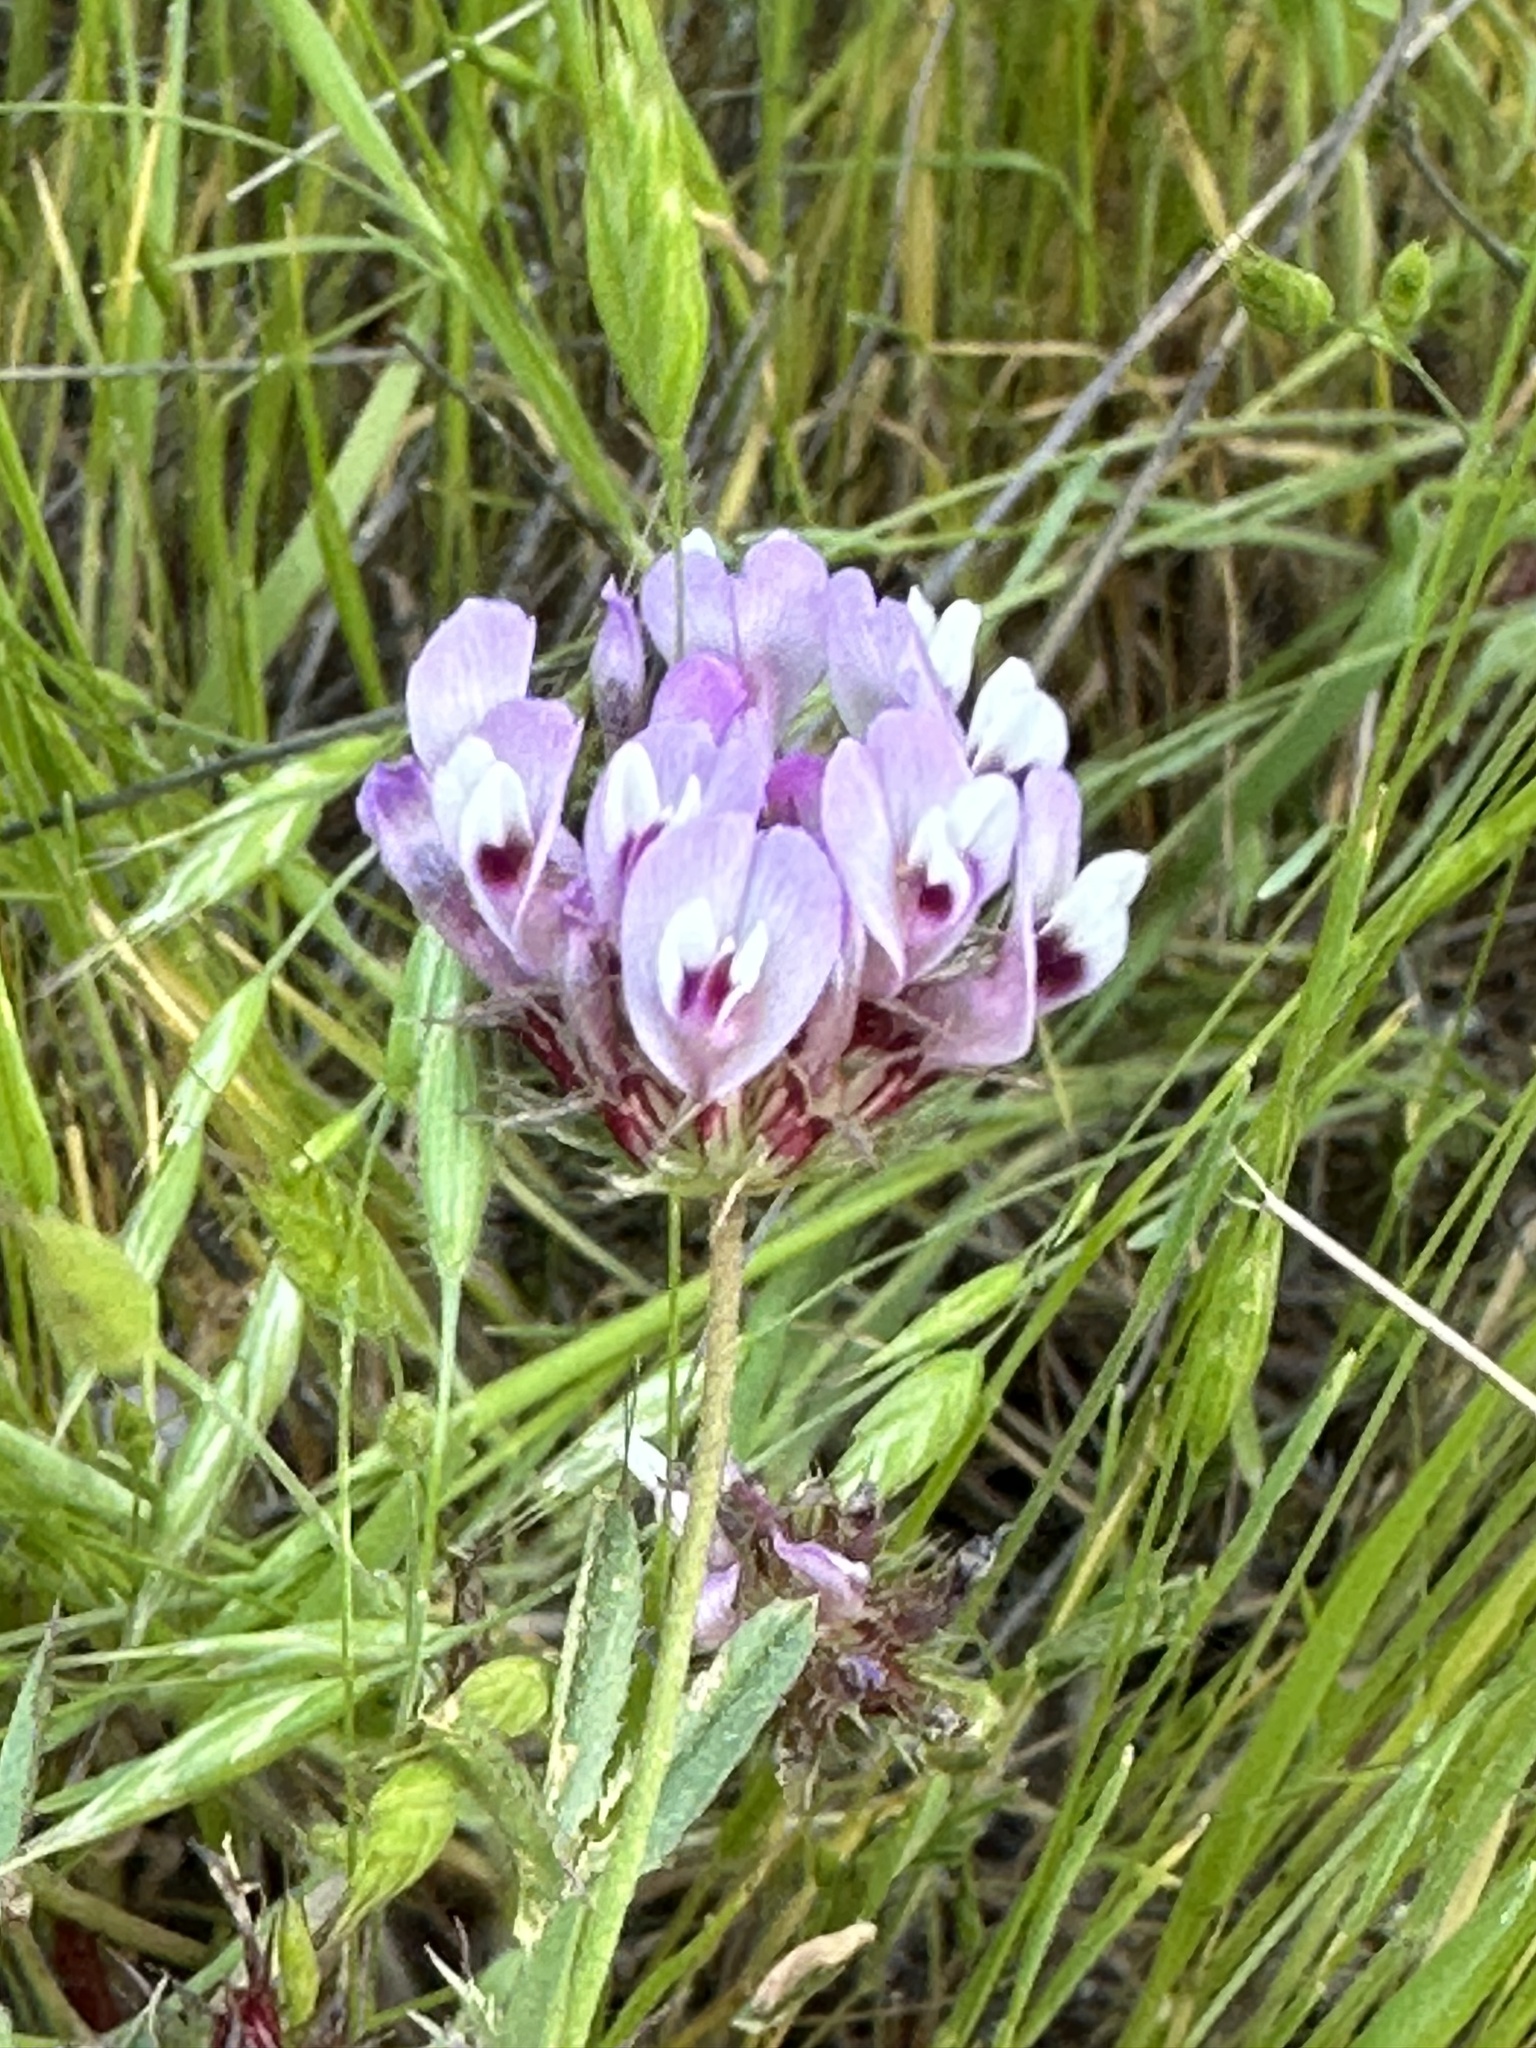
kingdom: Plantae
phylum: Tracheophyta
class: Magnoliopsida
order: Fabales
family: Fabaceae
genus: Trifolium
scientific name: Trifolium willdenovii
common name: Tomcat clover
